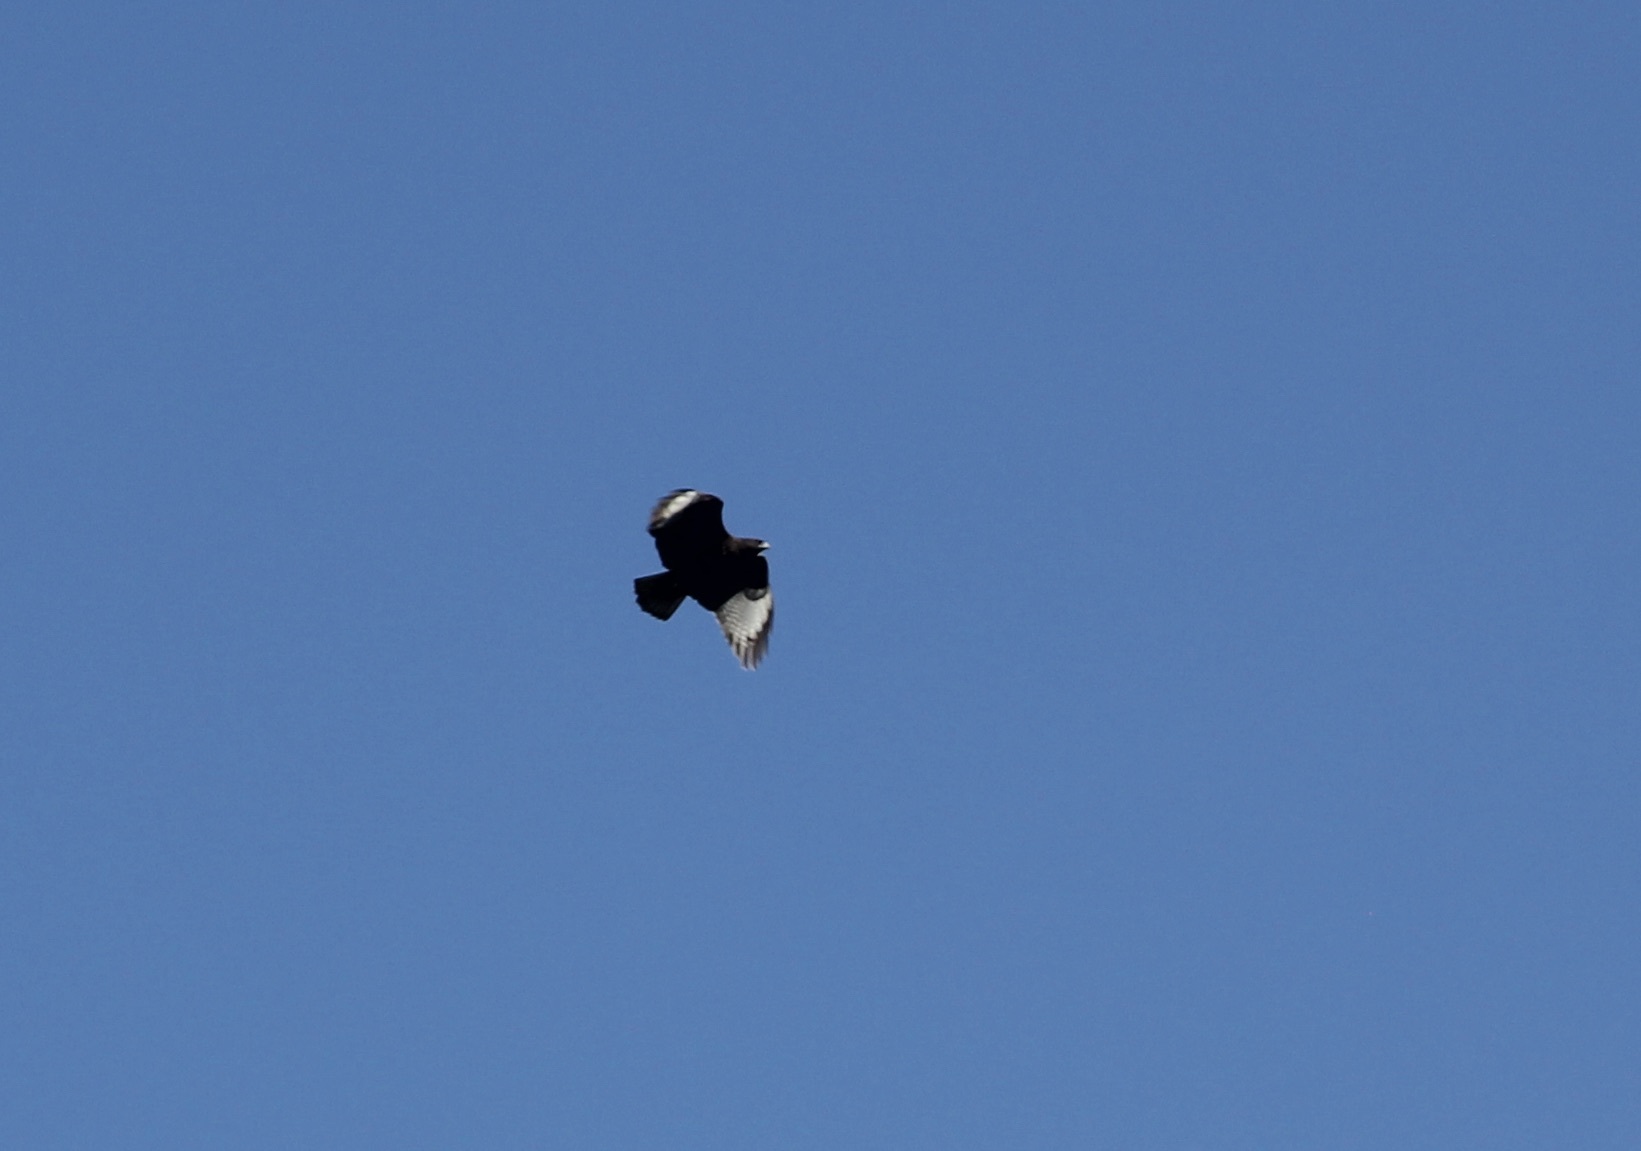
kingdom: Animalia
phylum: Chordata
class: Aves
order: Accipitriformes
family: Accipitridae
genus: Buteo
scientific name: Buteo jamaicensis
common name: Red-tailed hawk
